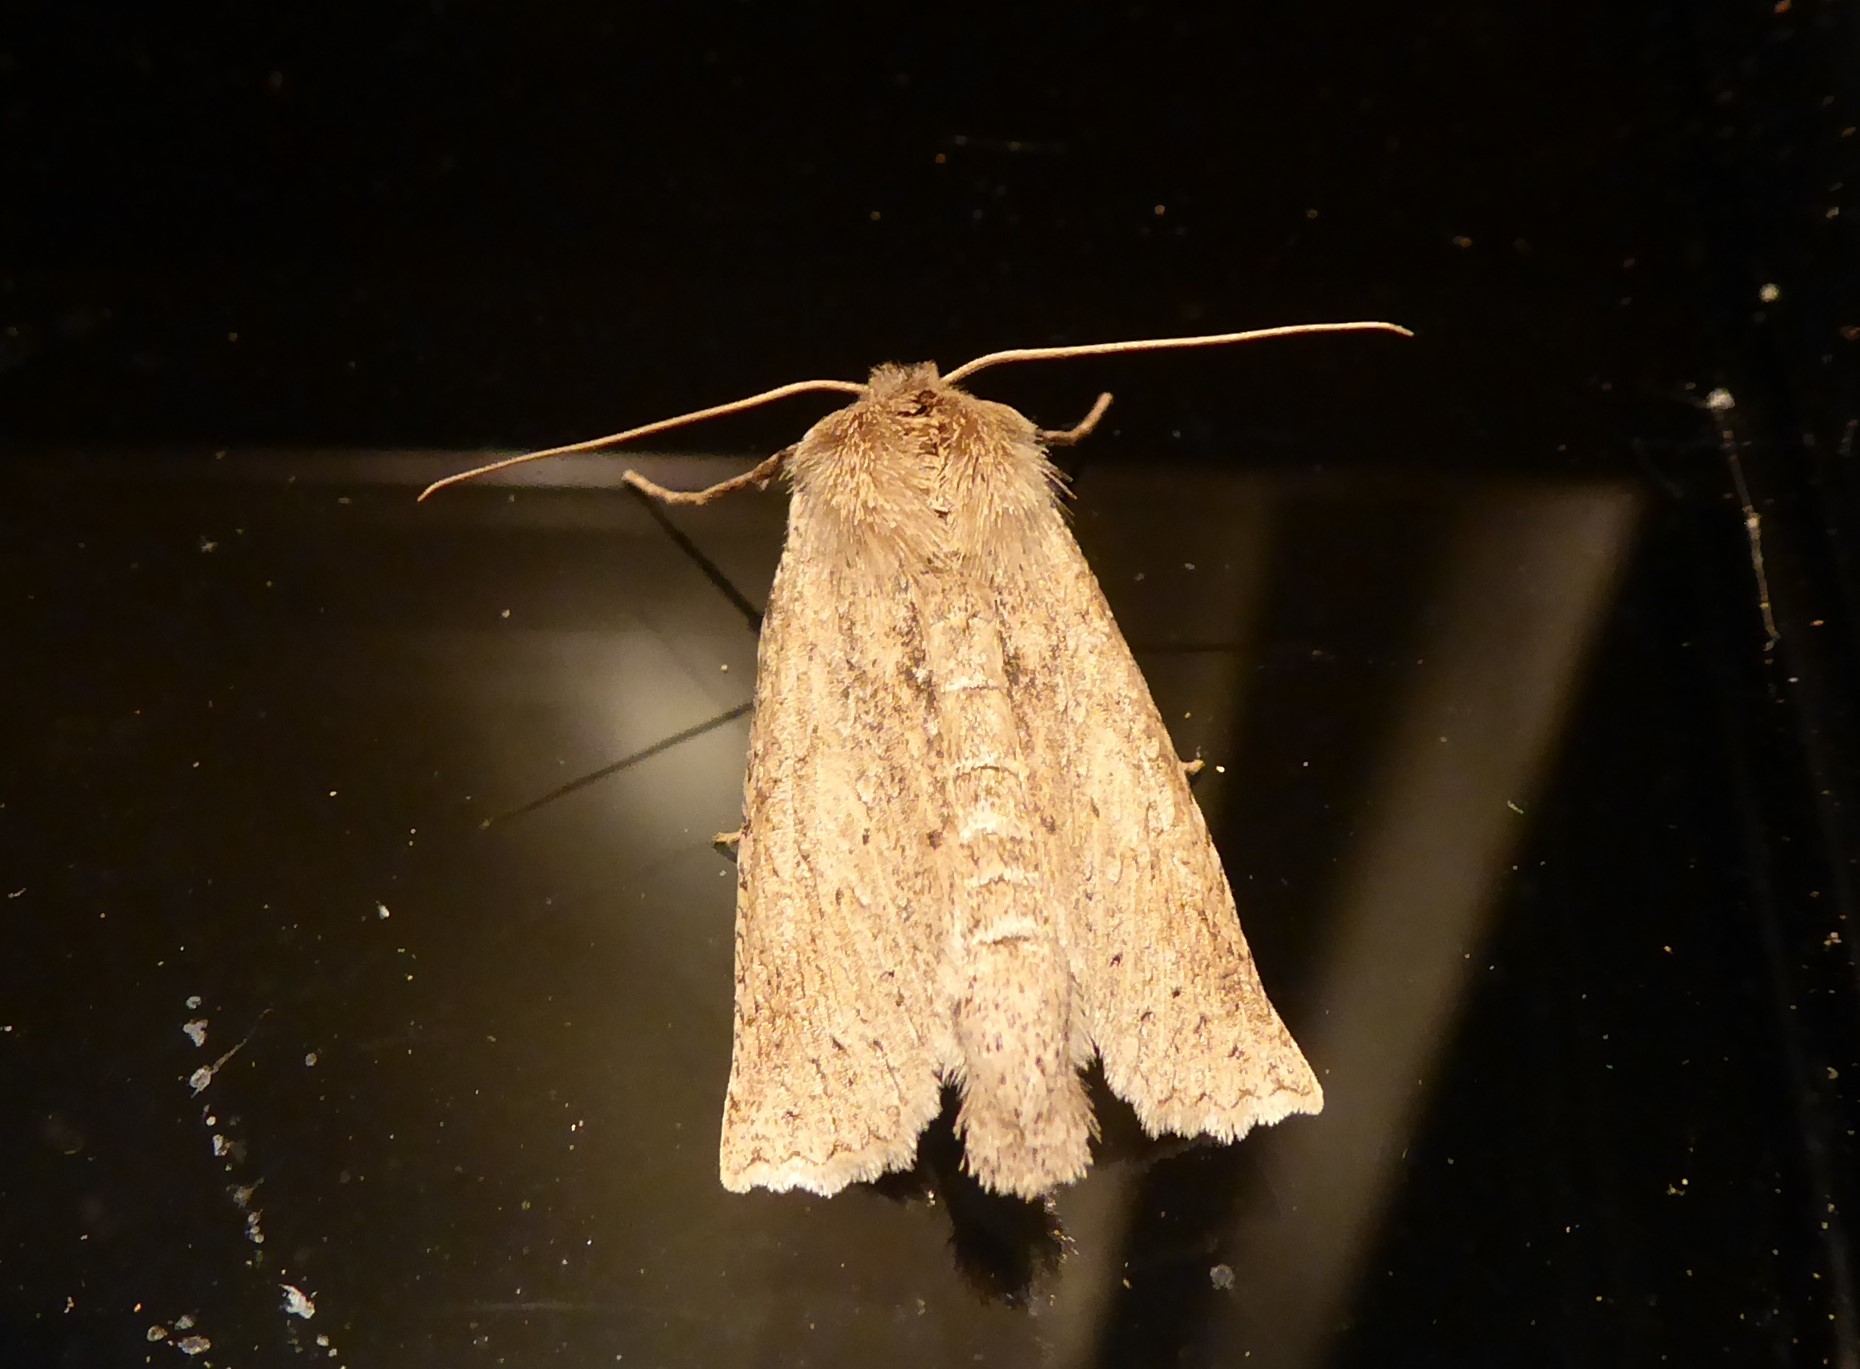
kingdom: Animalia
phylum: Arthropoda
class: Insecta
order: Lepidoptera
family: Geometridae
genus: Declana
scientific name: Declana leptomera
